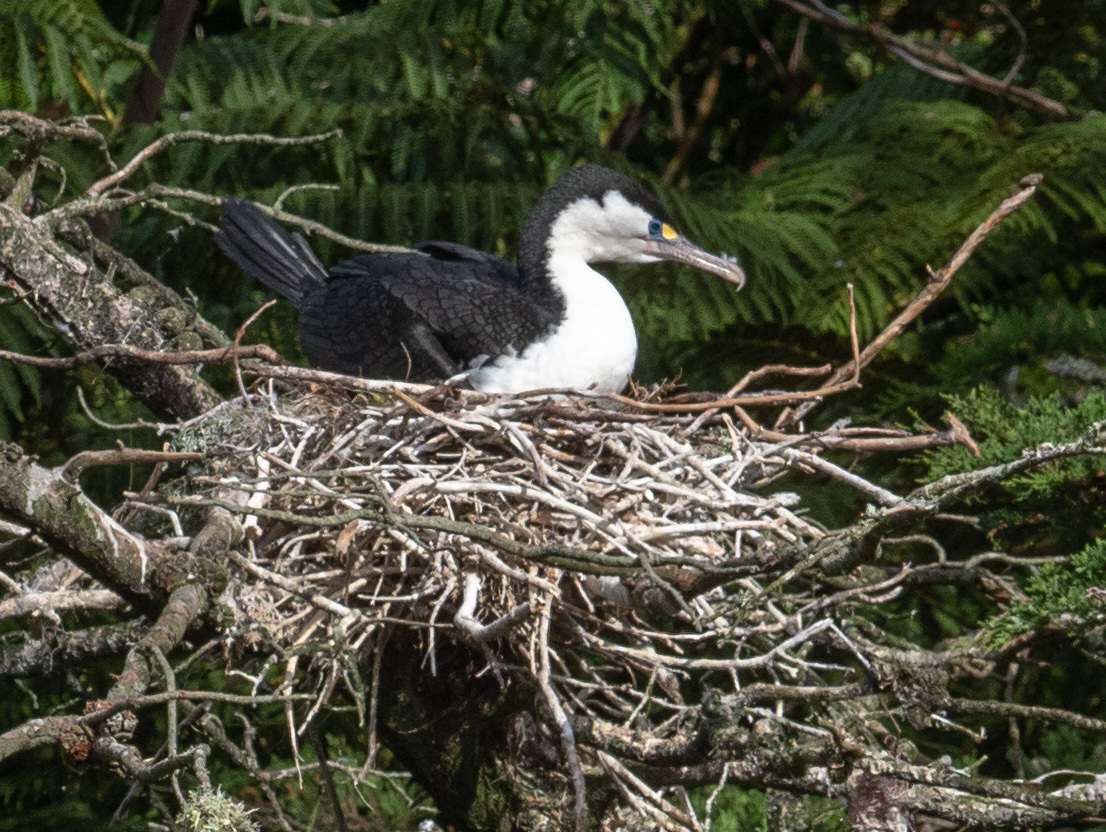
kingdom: Animalia
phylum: Chordata
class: Aves
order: Suliformes
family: Phalacrocoracidae
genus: Phalacrocorax
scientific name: Phalacrocorax varius
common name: Pied cormorant
